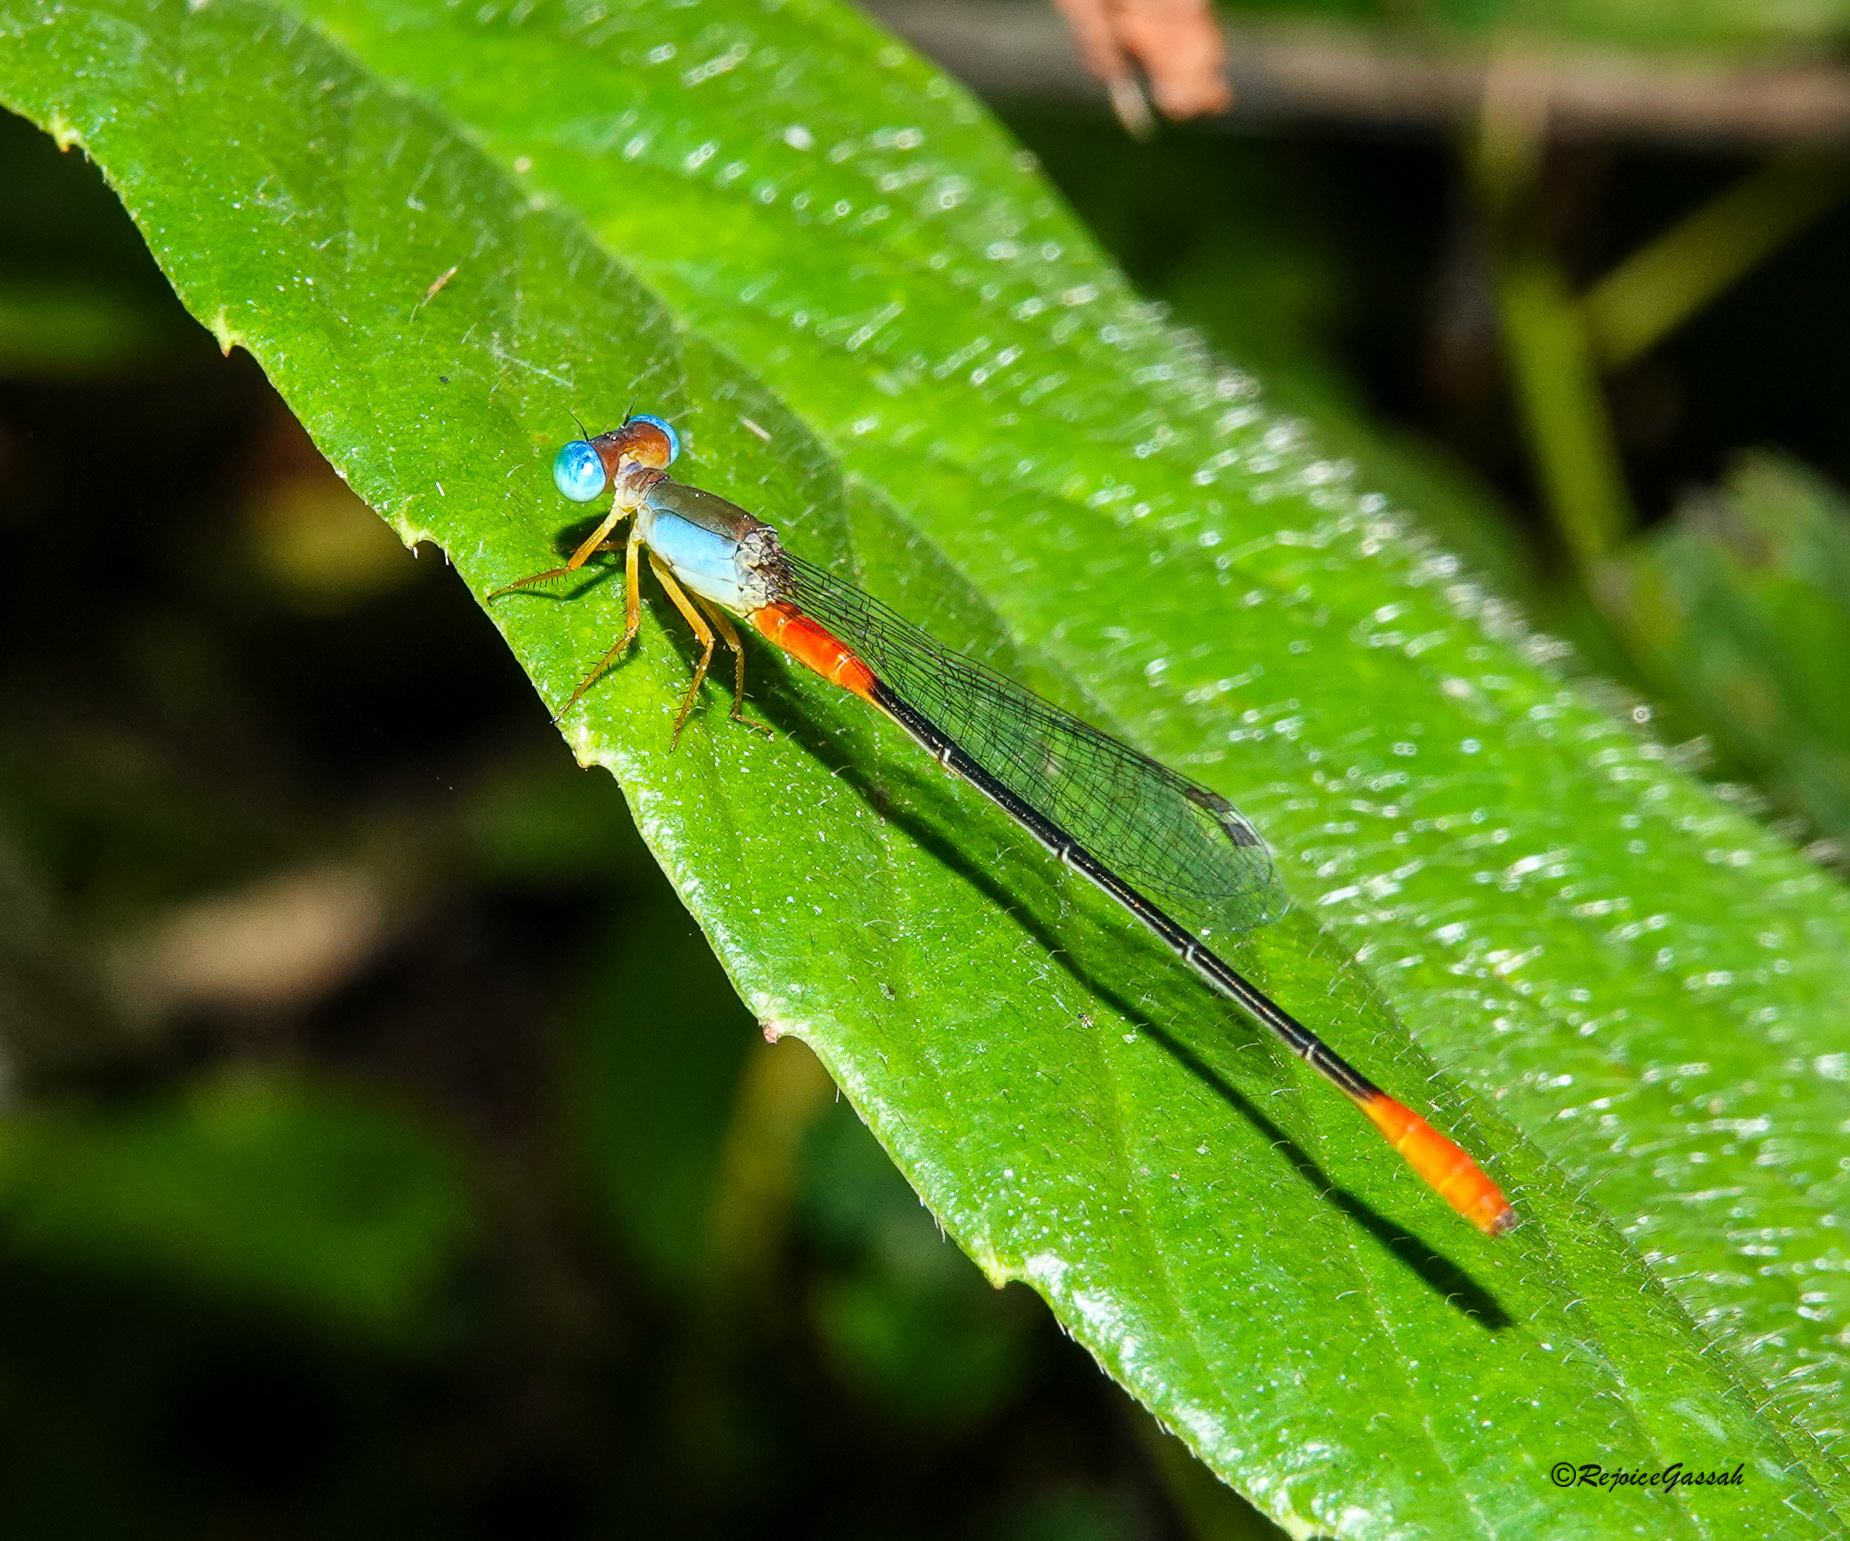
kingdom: Animalia
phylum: Arthropoda
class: Insecta
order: Odonata
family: Coenagrionidae
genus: Ceriagrion
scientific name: Ceriagrion cerinorubellum
